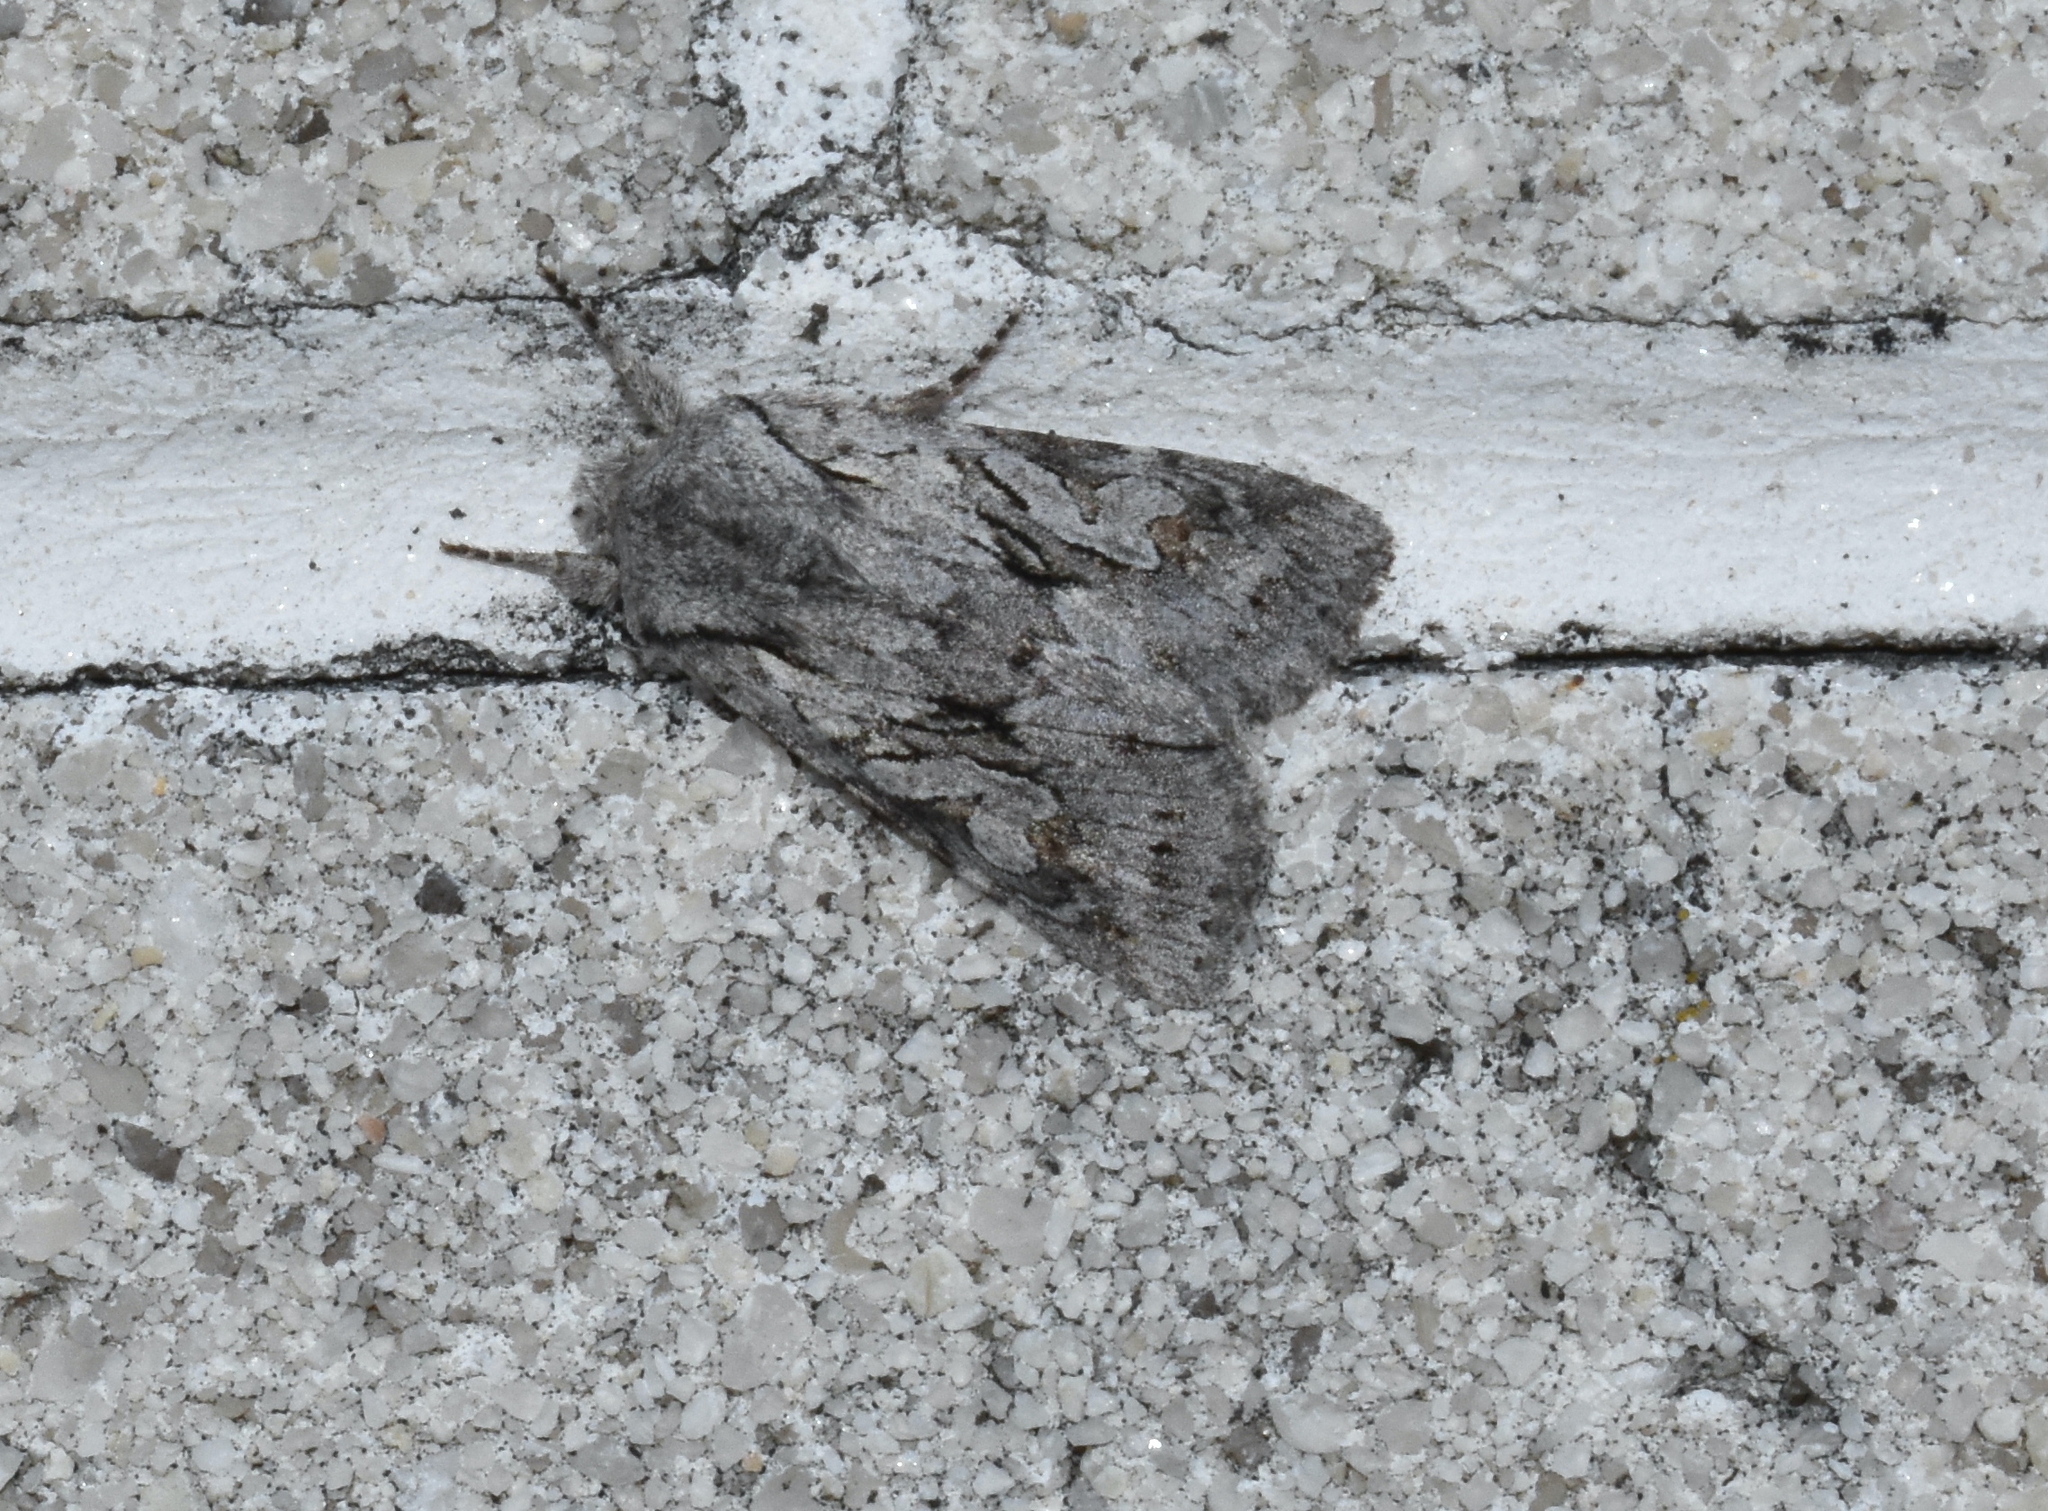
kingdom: Animalia
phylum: Arthropoda
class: Insecta
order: Lepidoptera
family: Noctuidae
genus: Lacinipolia
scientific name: Lacinipolia patalis
